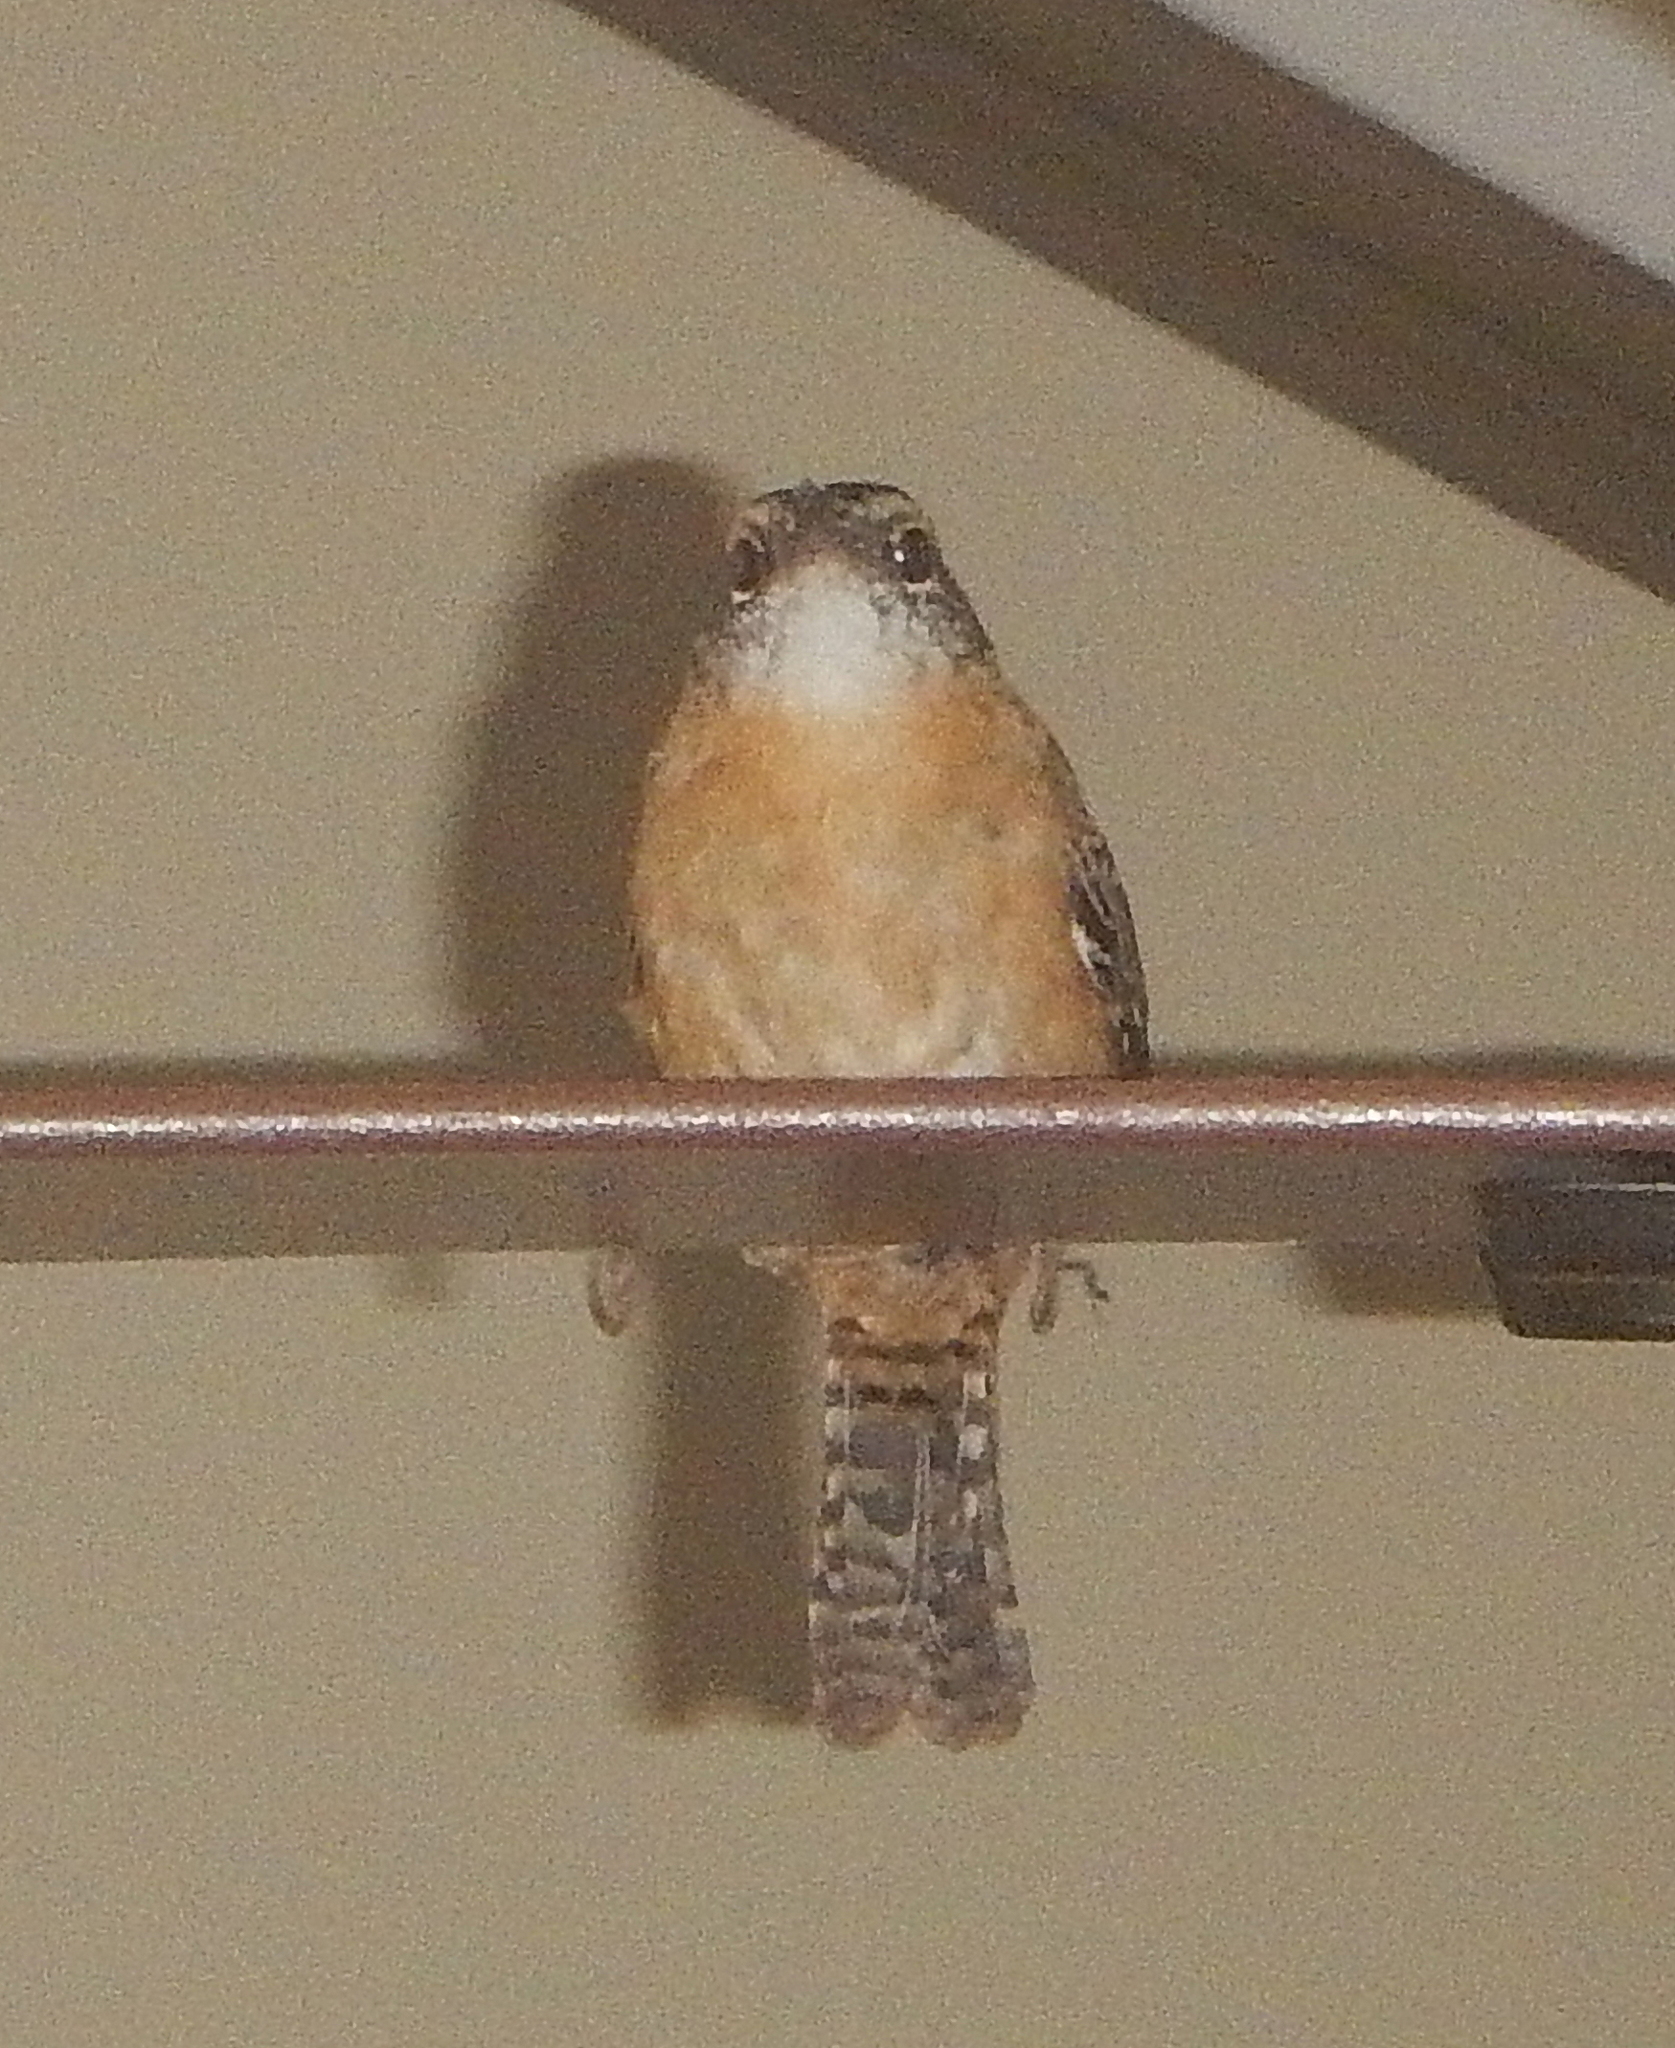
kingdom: Animalia
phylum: Chordata
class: Aves
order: Passeriformes
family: Troglodytidae
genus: Thryothorus
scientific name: Thryothorus ludovicianus
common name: Carolina wren
